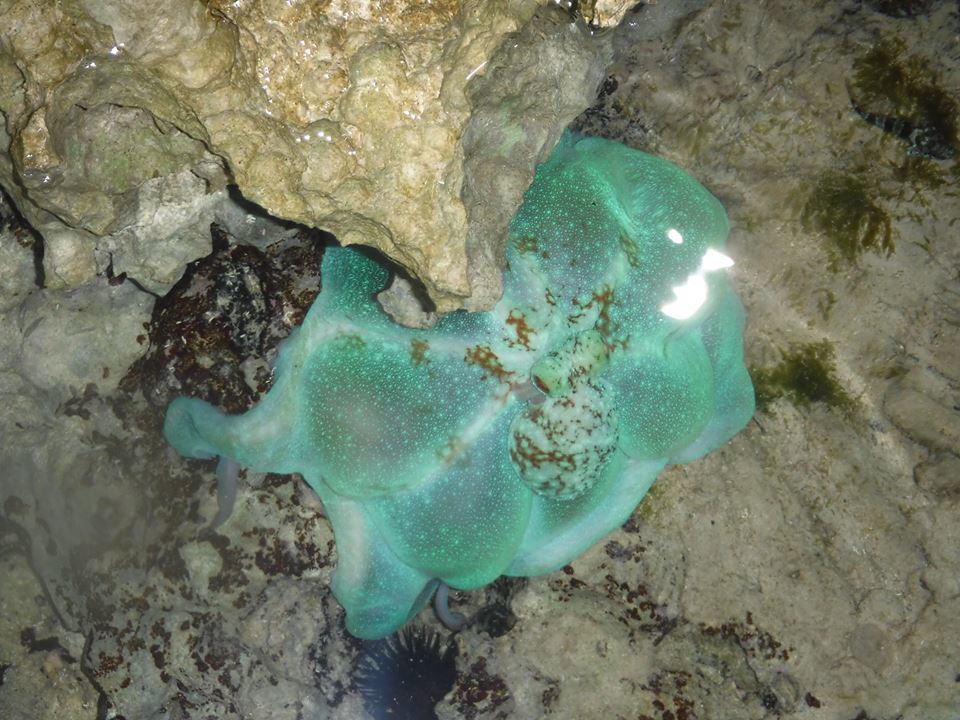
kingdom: Animalia
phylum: Mollusca
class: Cephalopoda
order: Octopoda
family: Octopodidae
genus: Octopus
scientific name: Octopus briareus
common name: Caribbean reef octopus
